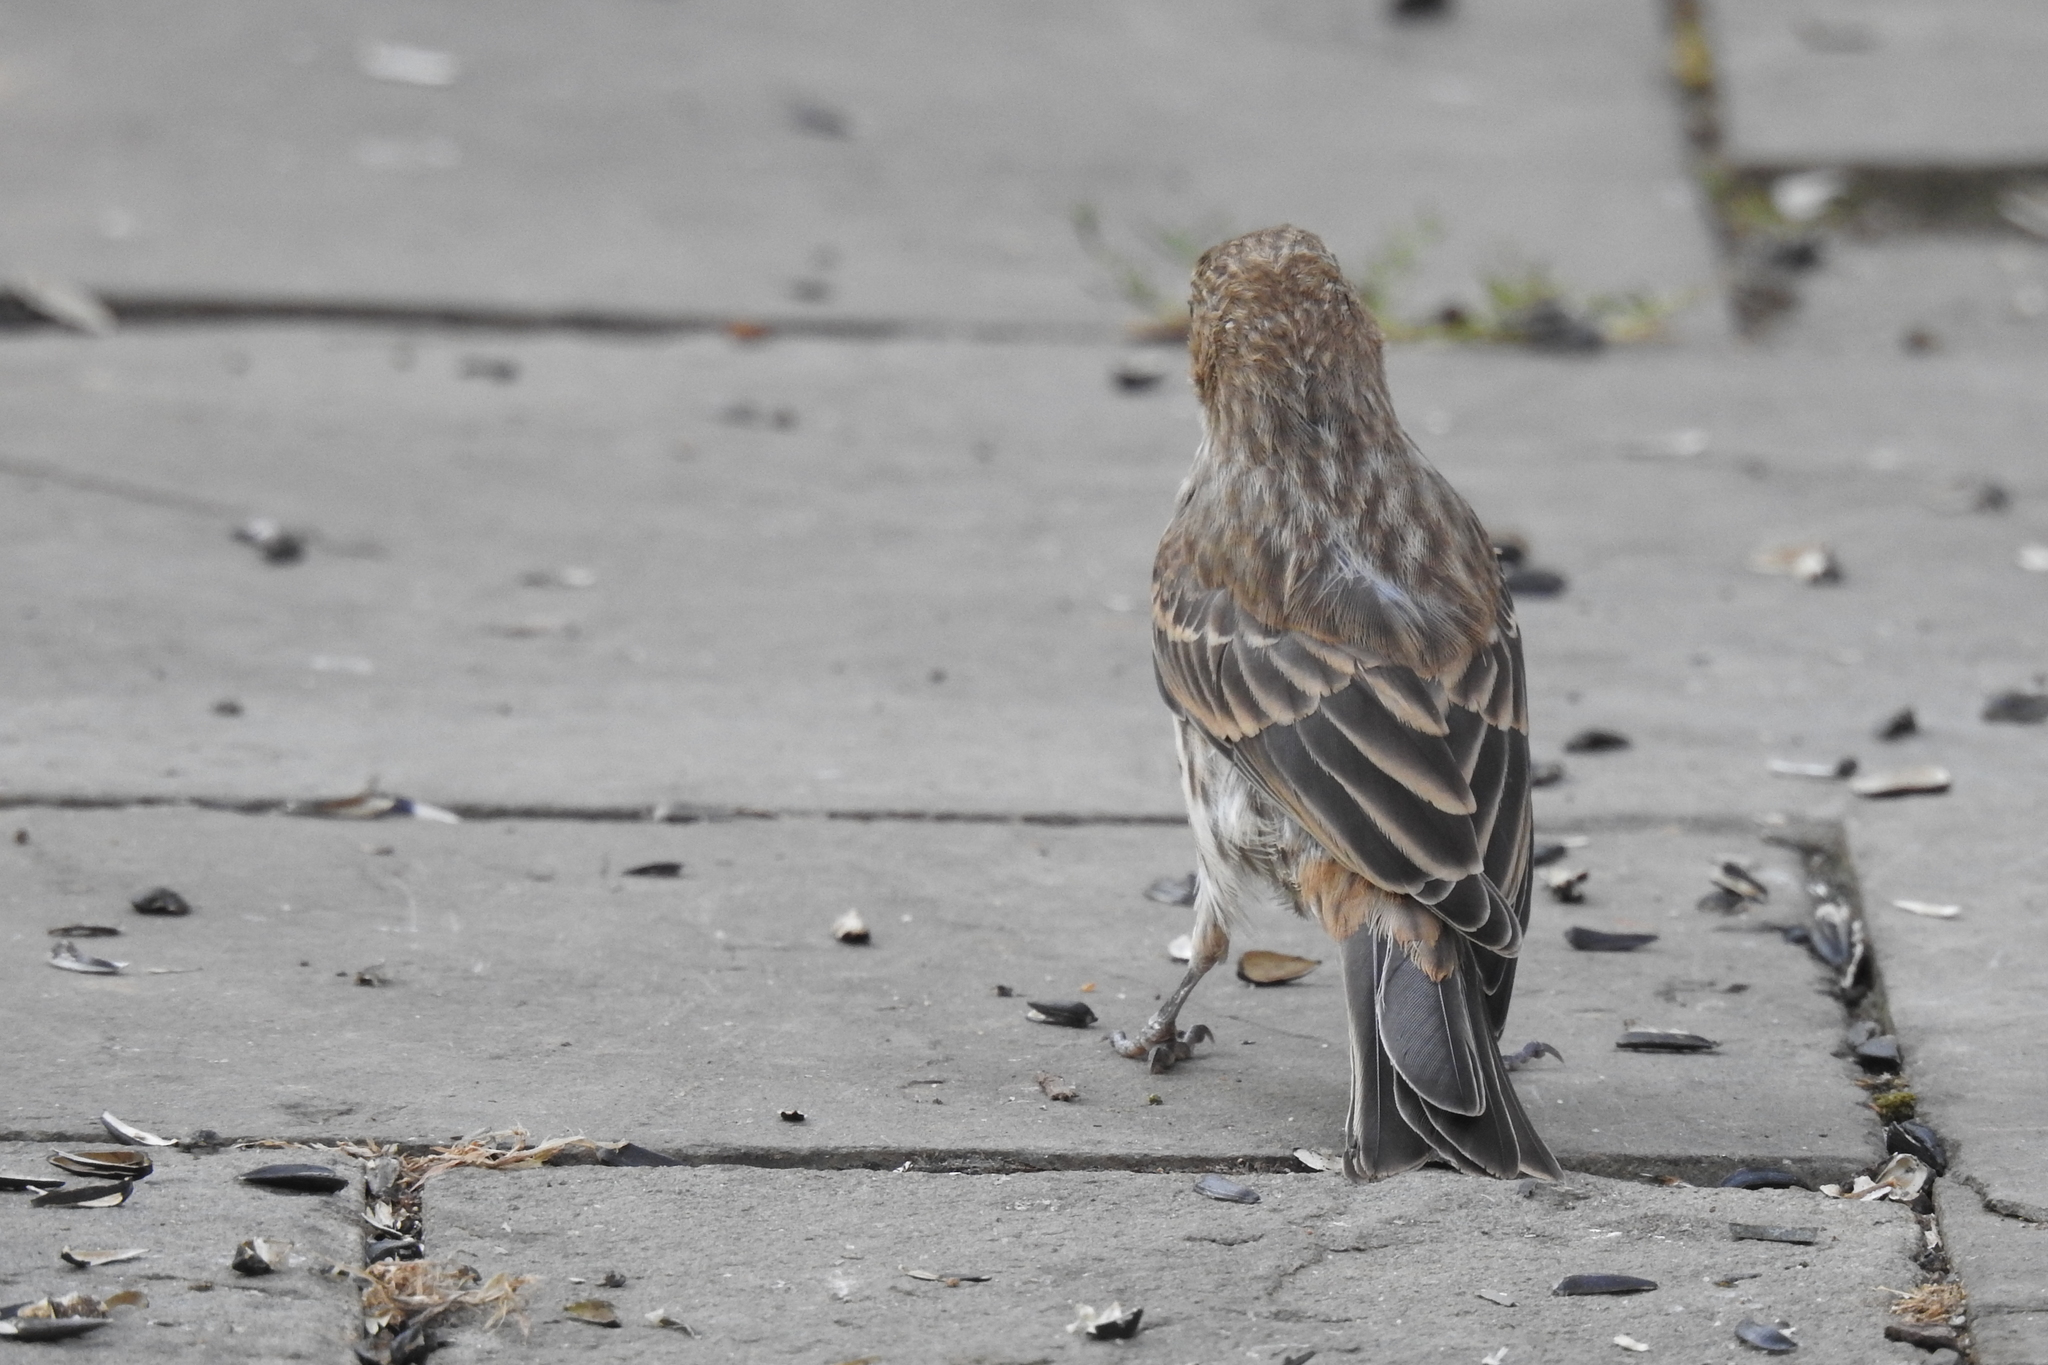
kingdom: Animalia
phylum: Chordata
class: Aves
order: Passeriformes
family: Fringillidae
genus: Haemorhous
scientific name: Haemorhous mexicanus
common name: House finch
